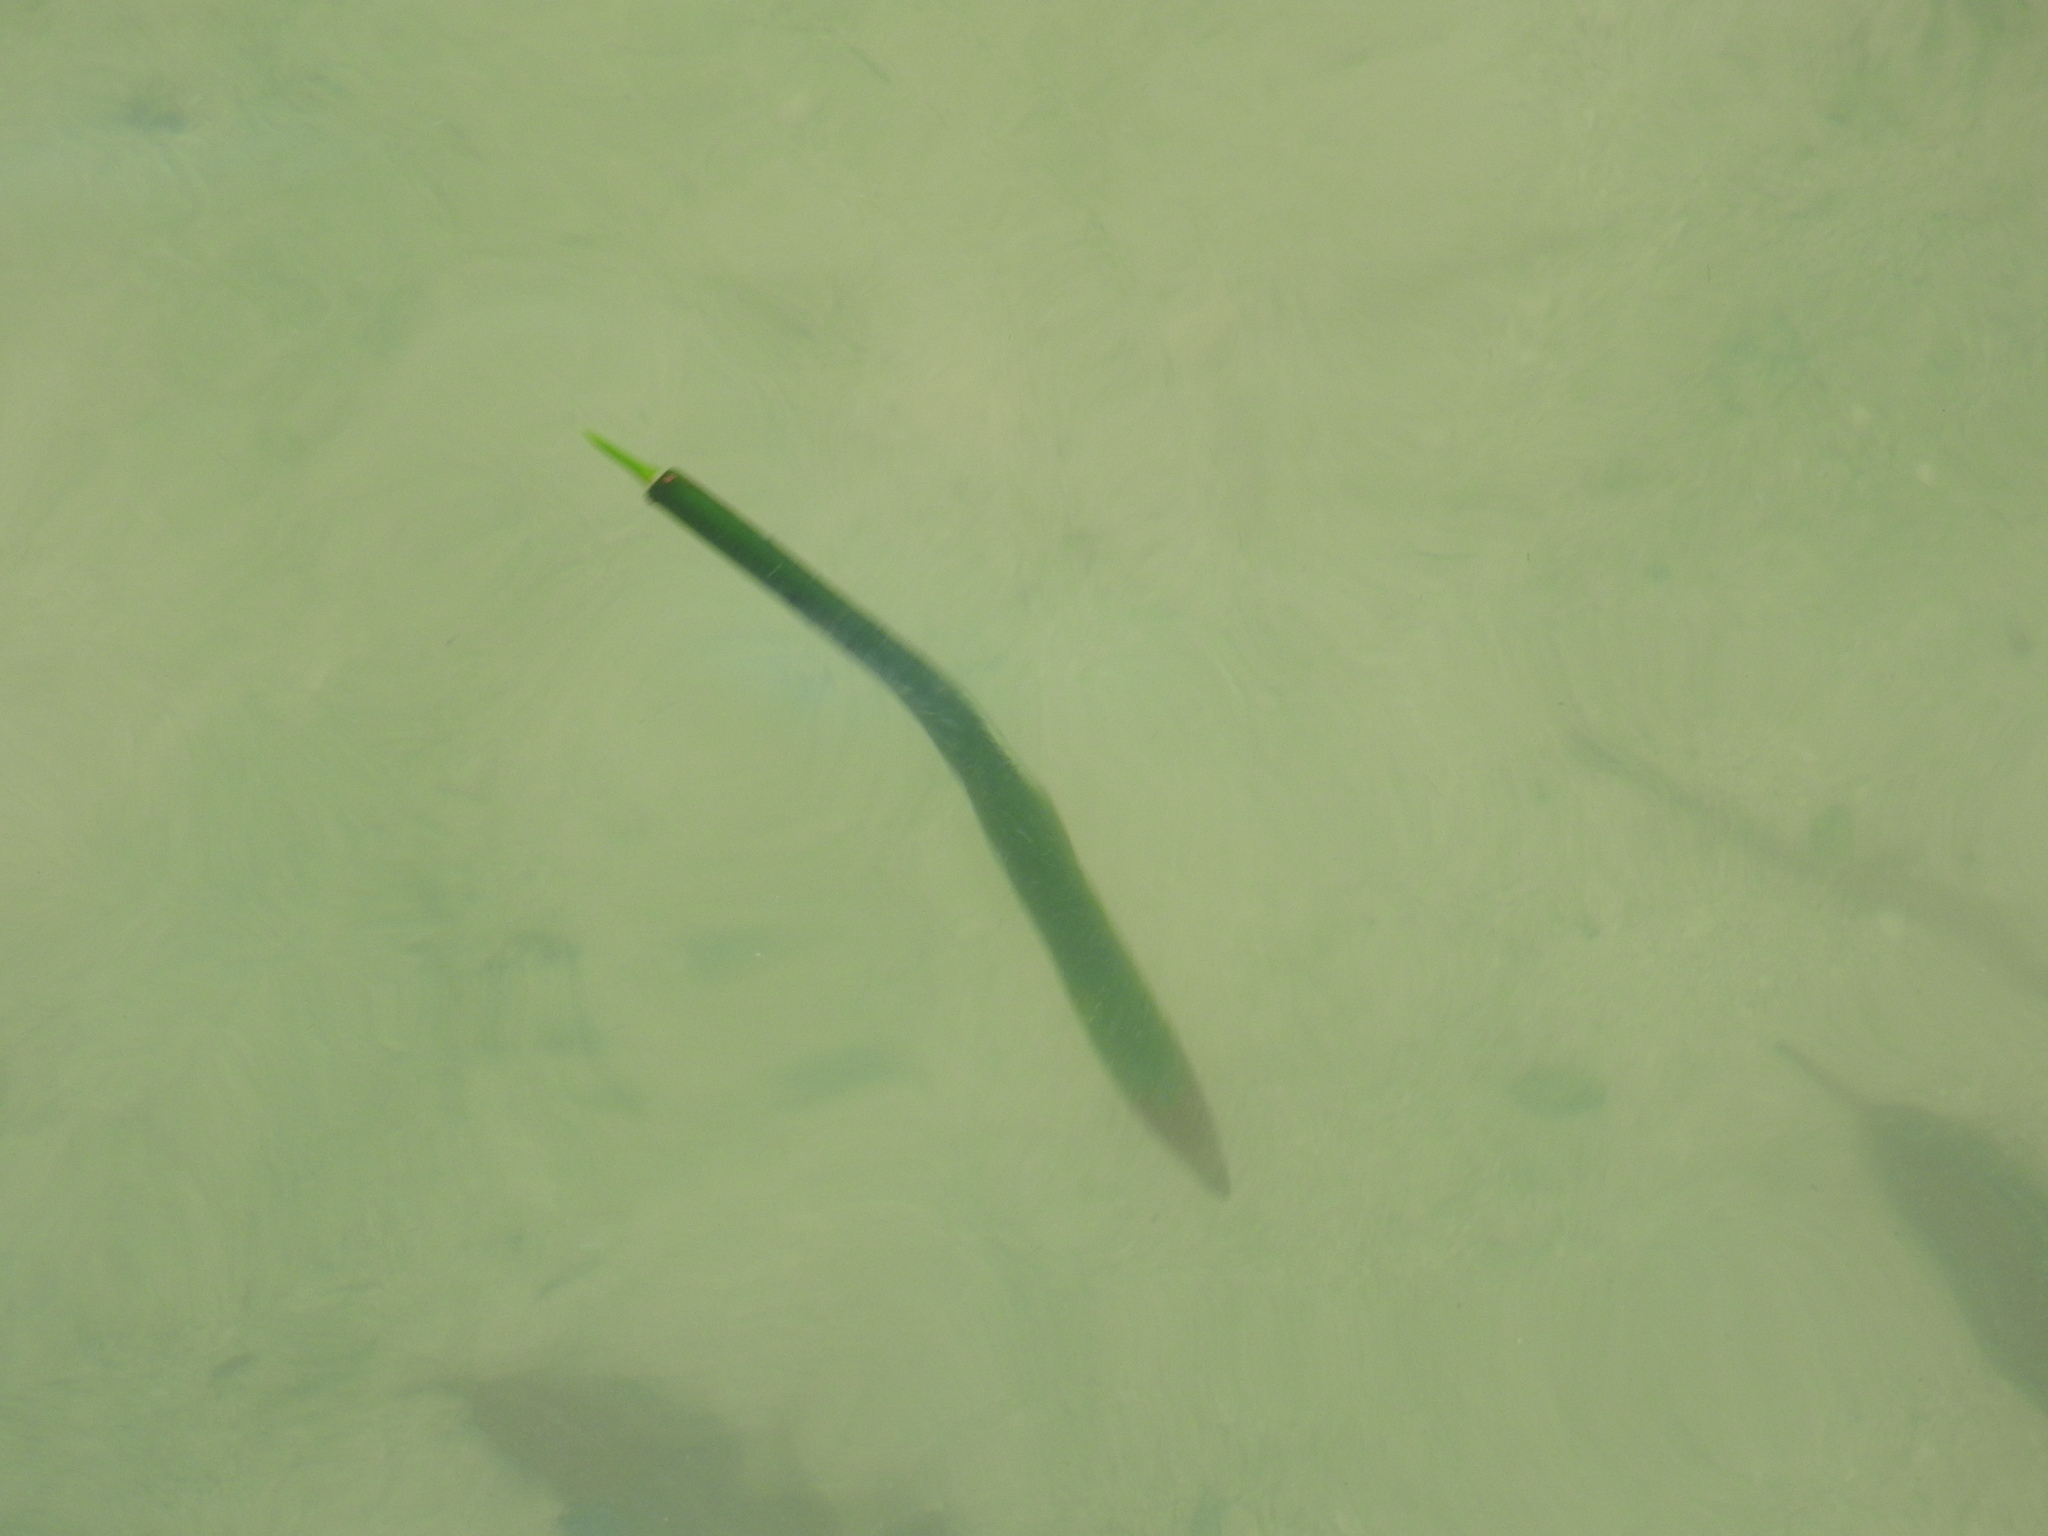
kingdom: Plantae
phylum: Tracheophyta
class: Magnoliopsida
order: Malpighiales
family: Rhizophoraceae
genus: Rhizophora
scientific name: Rhizophora mangle
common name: Red mangrove
